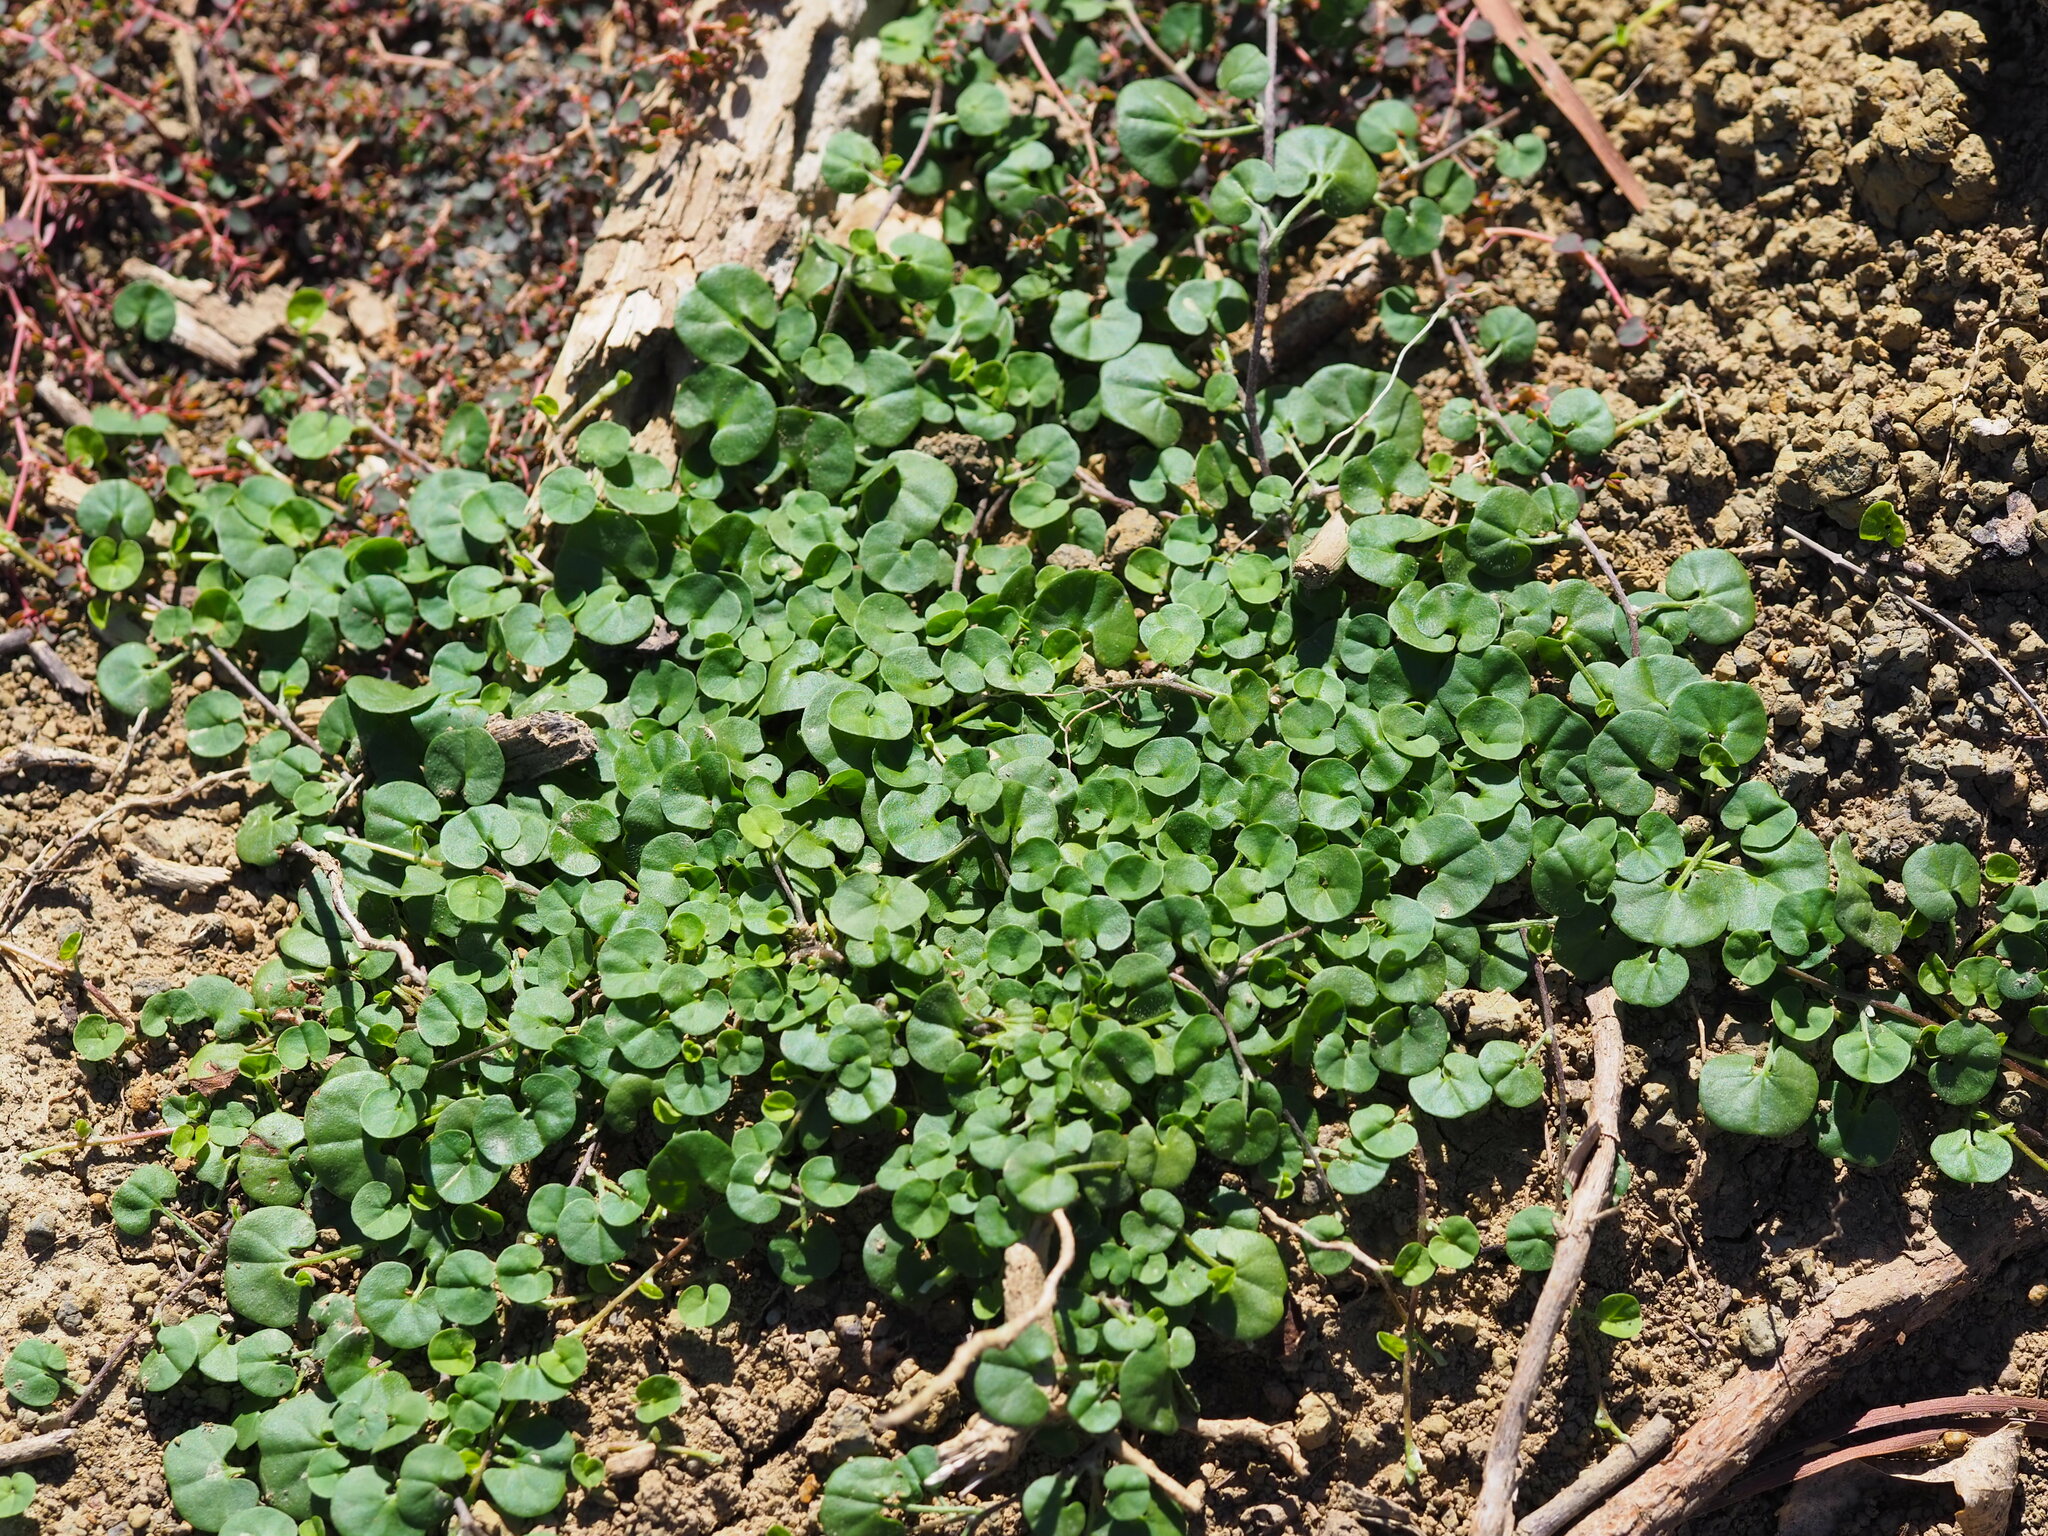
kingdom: Plantae
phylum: Tracheophyta
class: Magnoliopsida
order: Solanales
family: Convolvulaceae
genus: Dichondra
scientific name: Dichondra micrantha
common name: Kidneyweed
